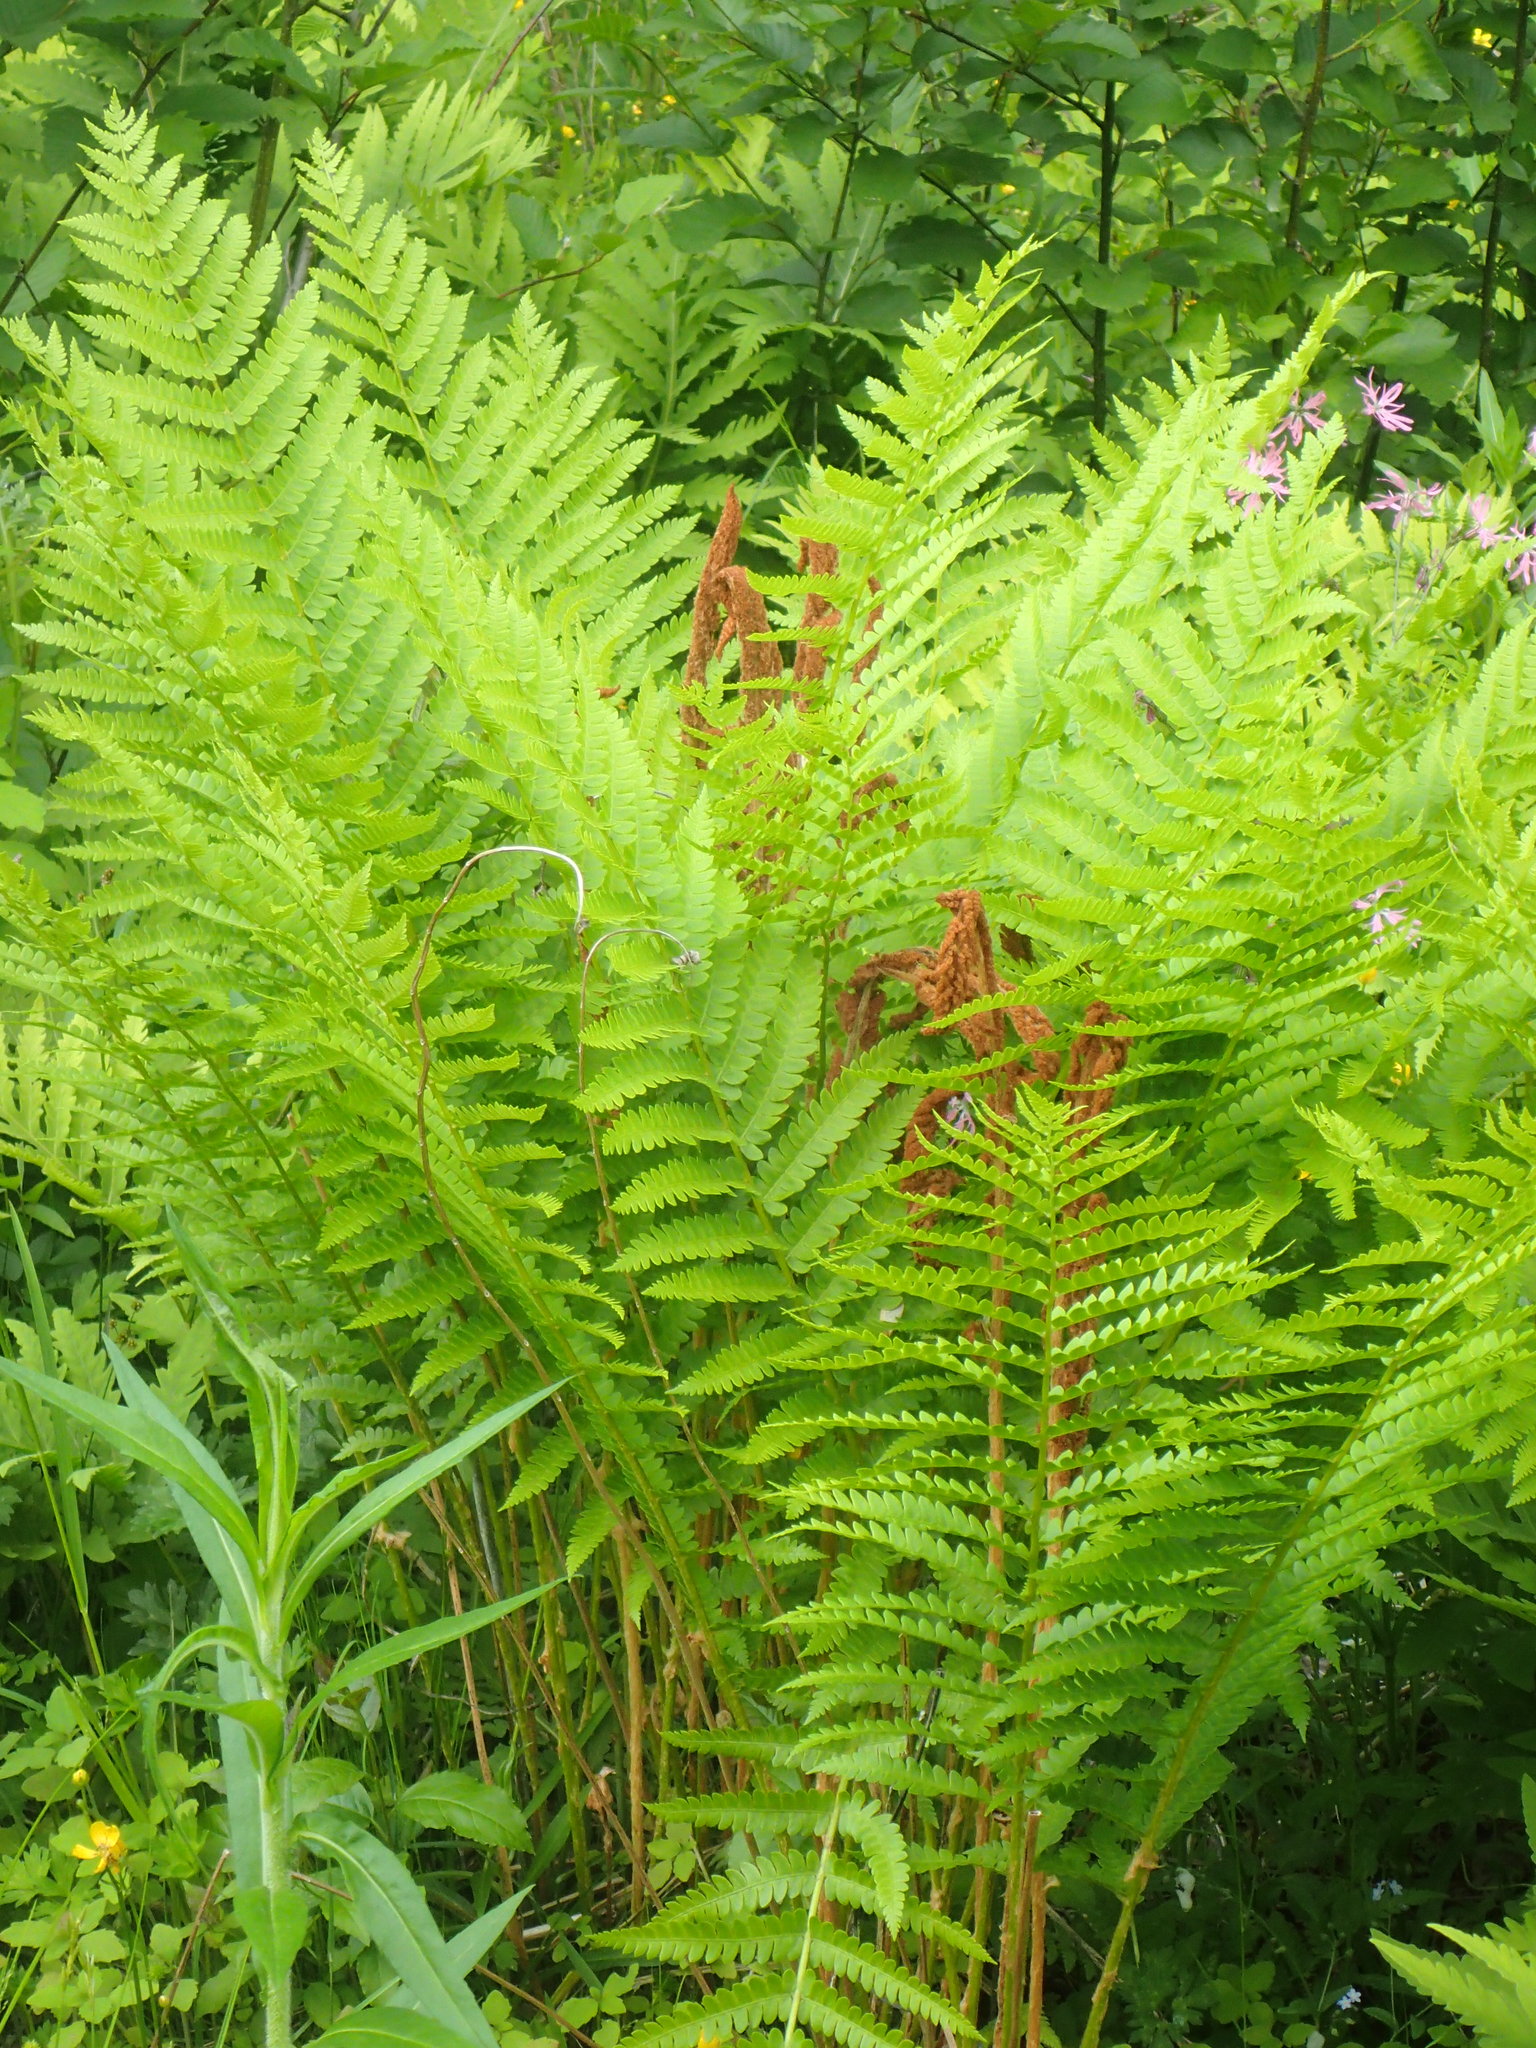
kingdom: Plantae
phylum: Tracheophyta
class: Polypodiopsida
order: Osmundales
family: Osmundaceae
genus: Osmundastrum
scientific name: Osmundastrum cinnamomeum
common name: Cinnamon fern
